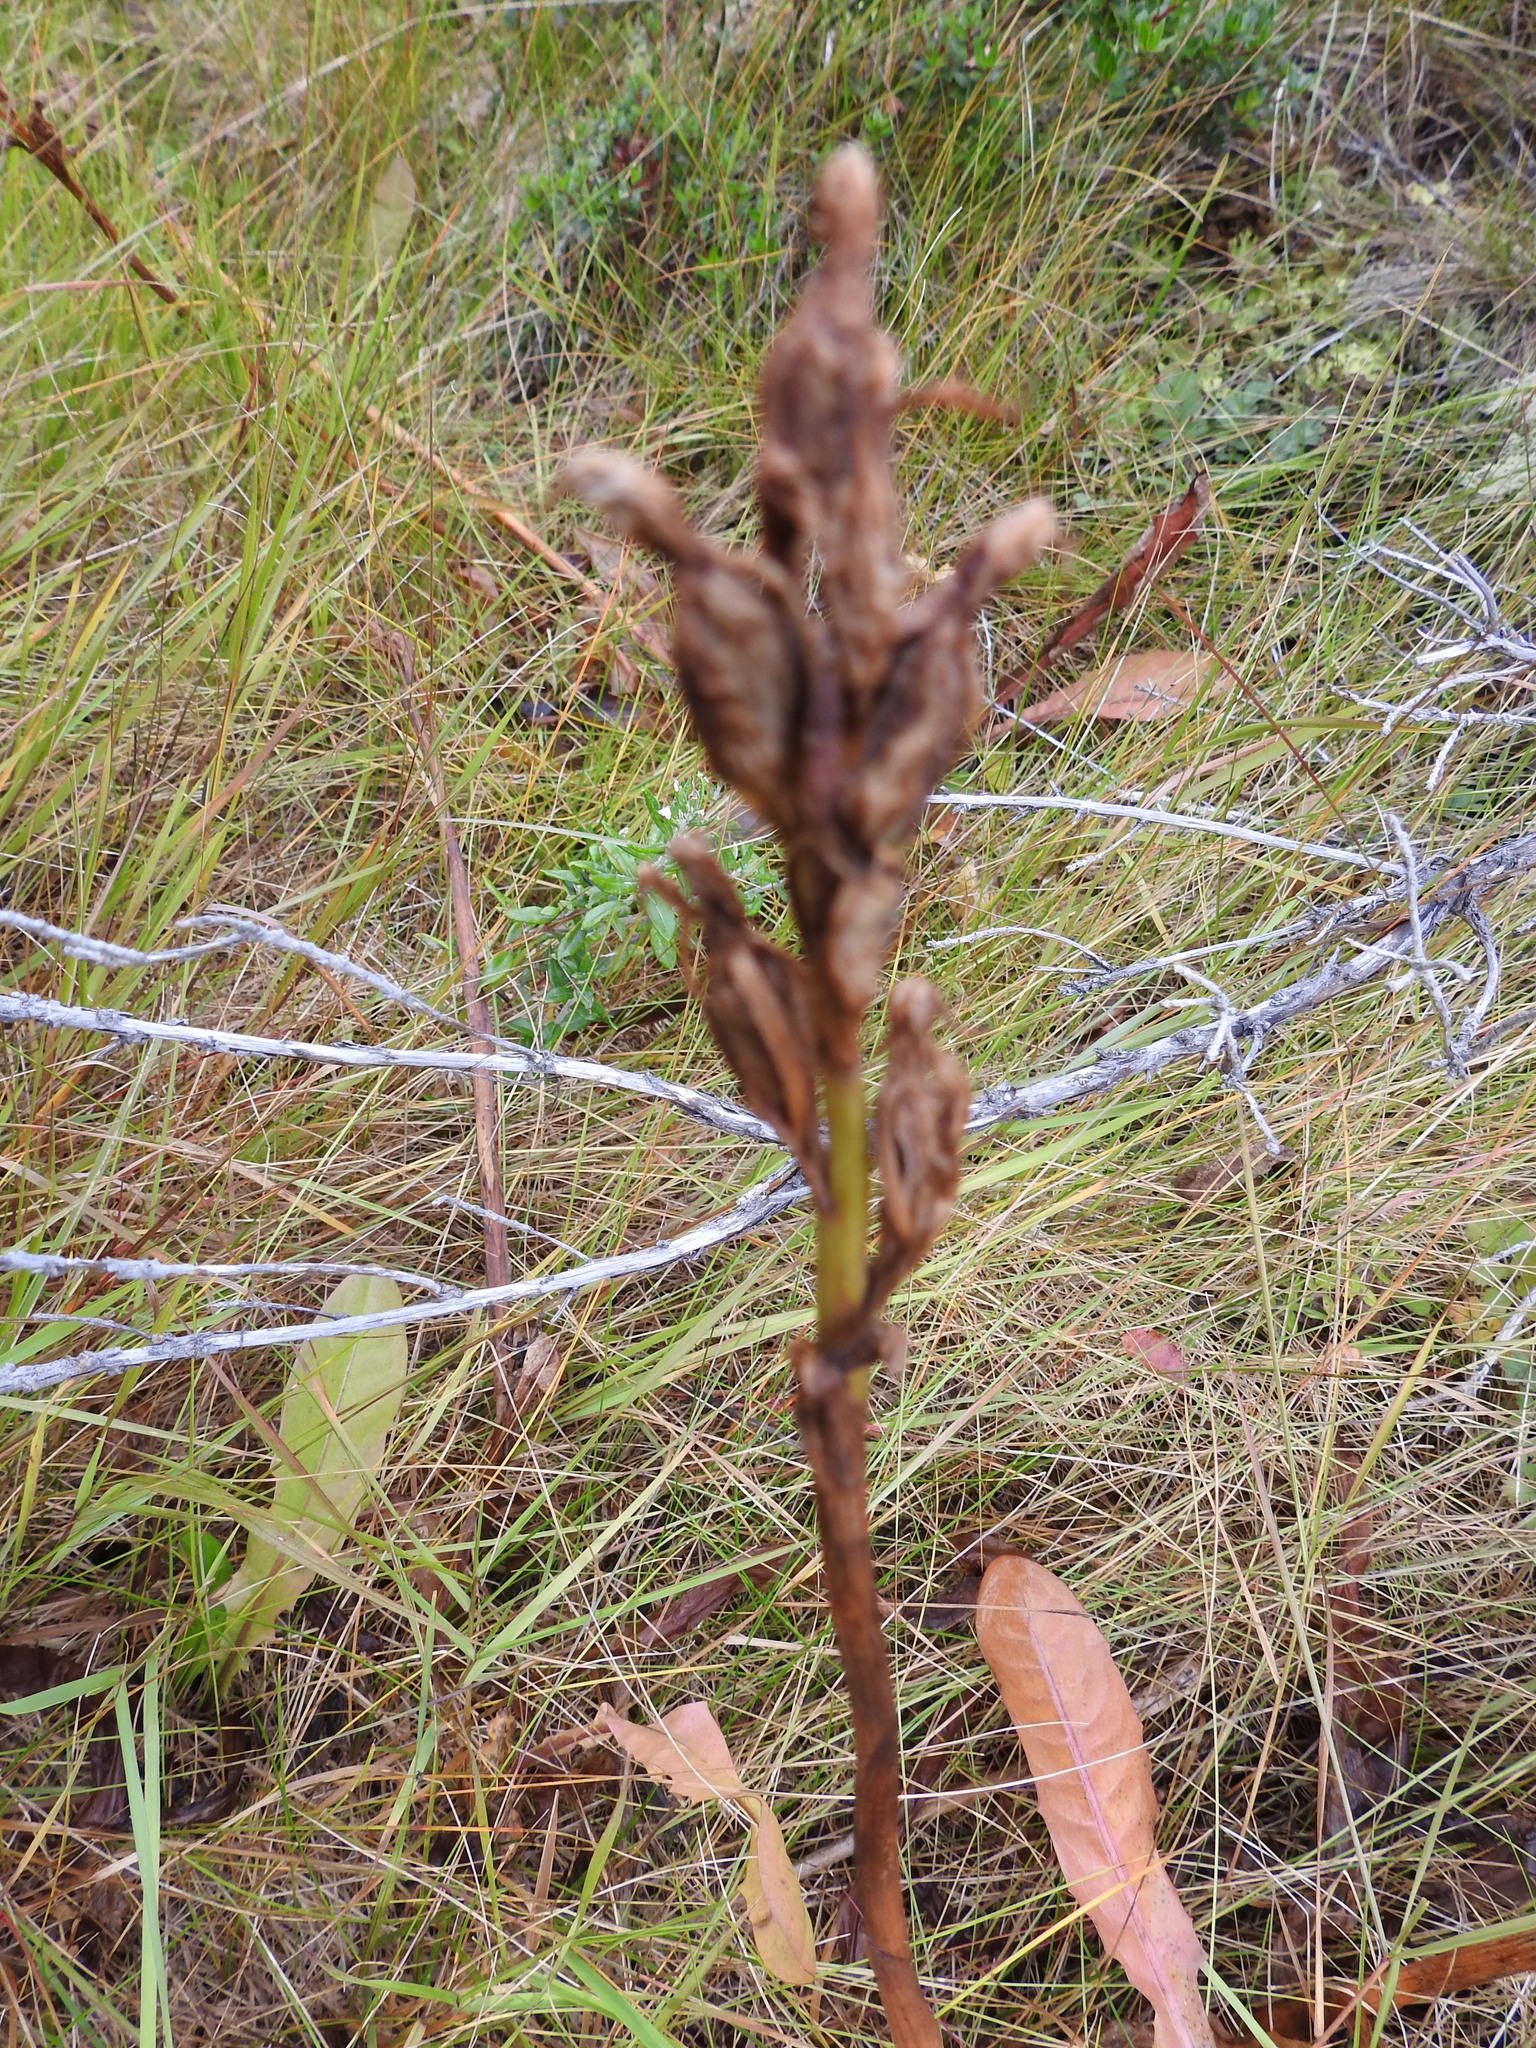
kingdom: Plantae
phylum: Tracheophyta
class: Liliopsida
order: Asparagales
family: Orchidaceae
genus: Gavilea
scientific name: Gavilea lutea
